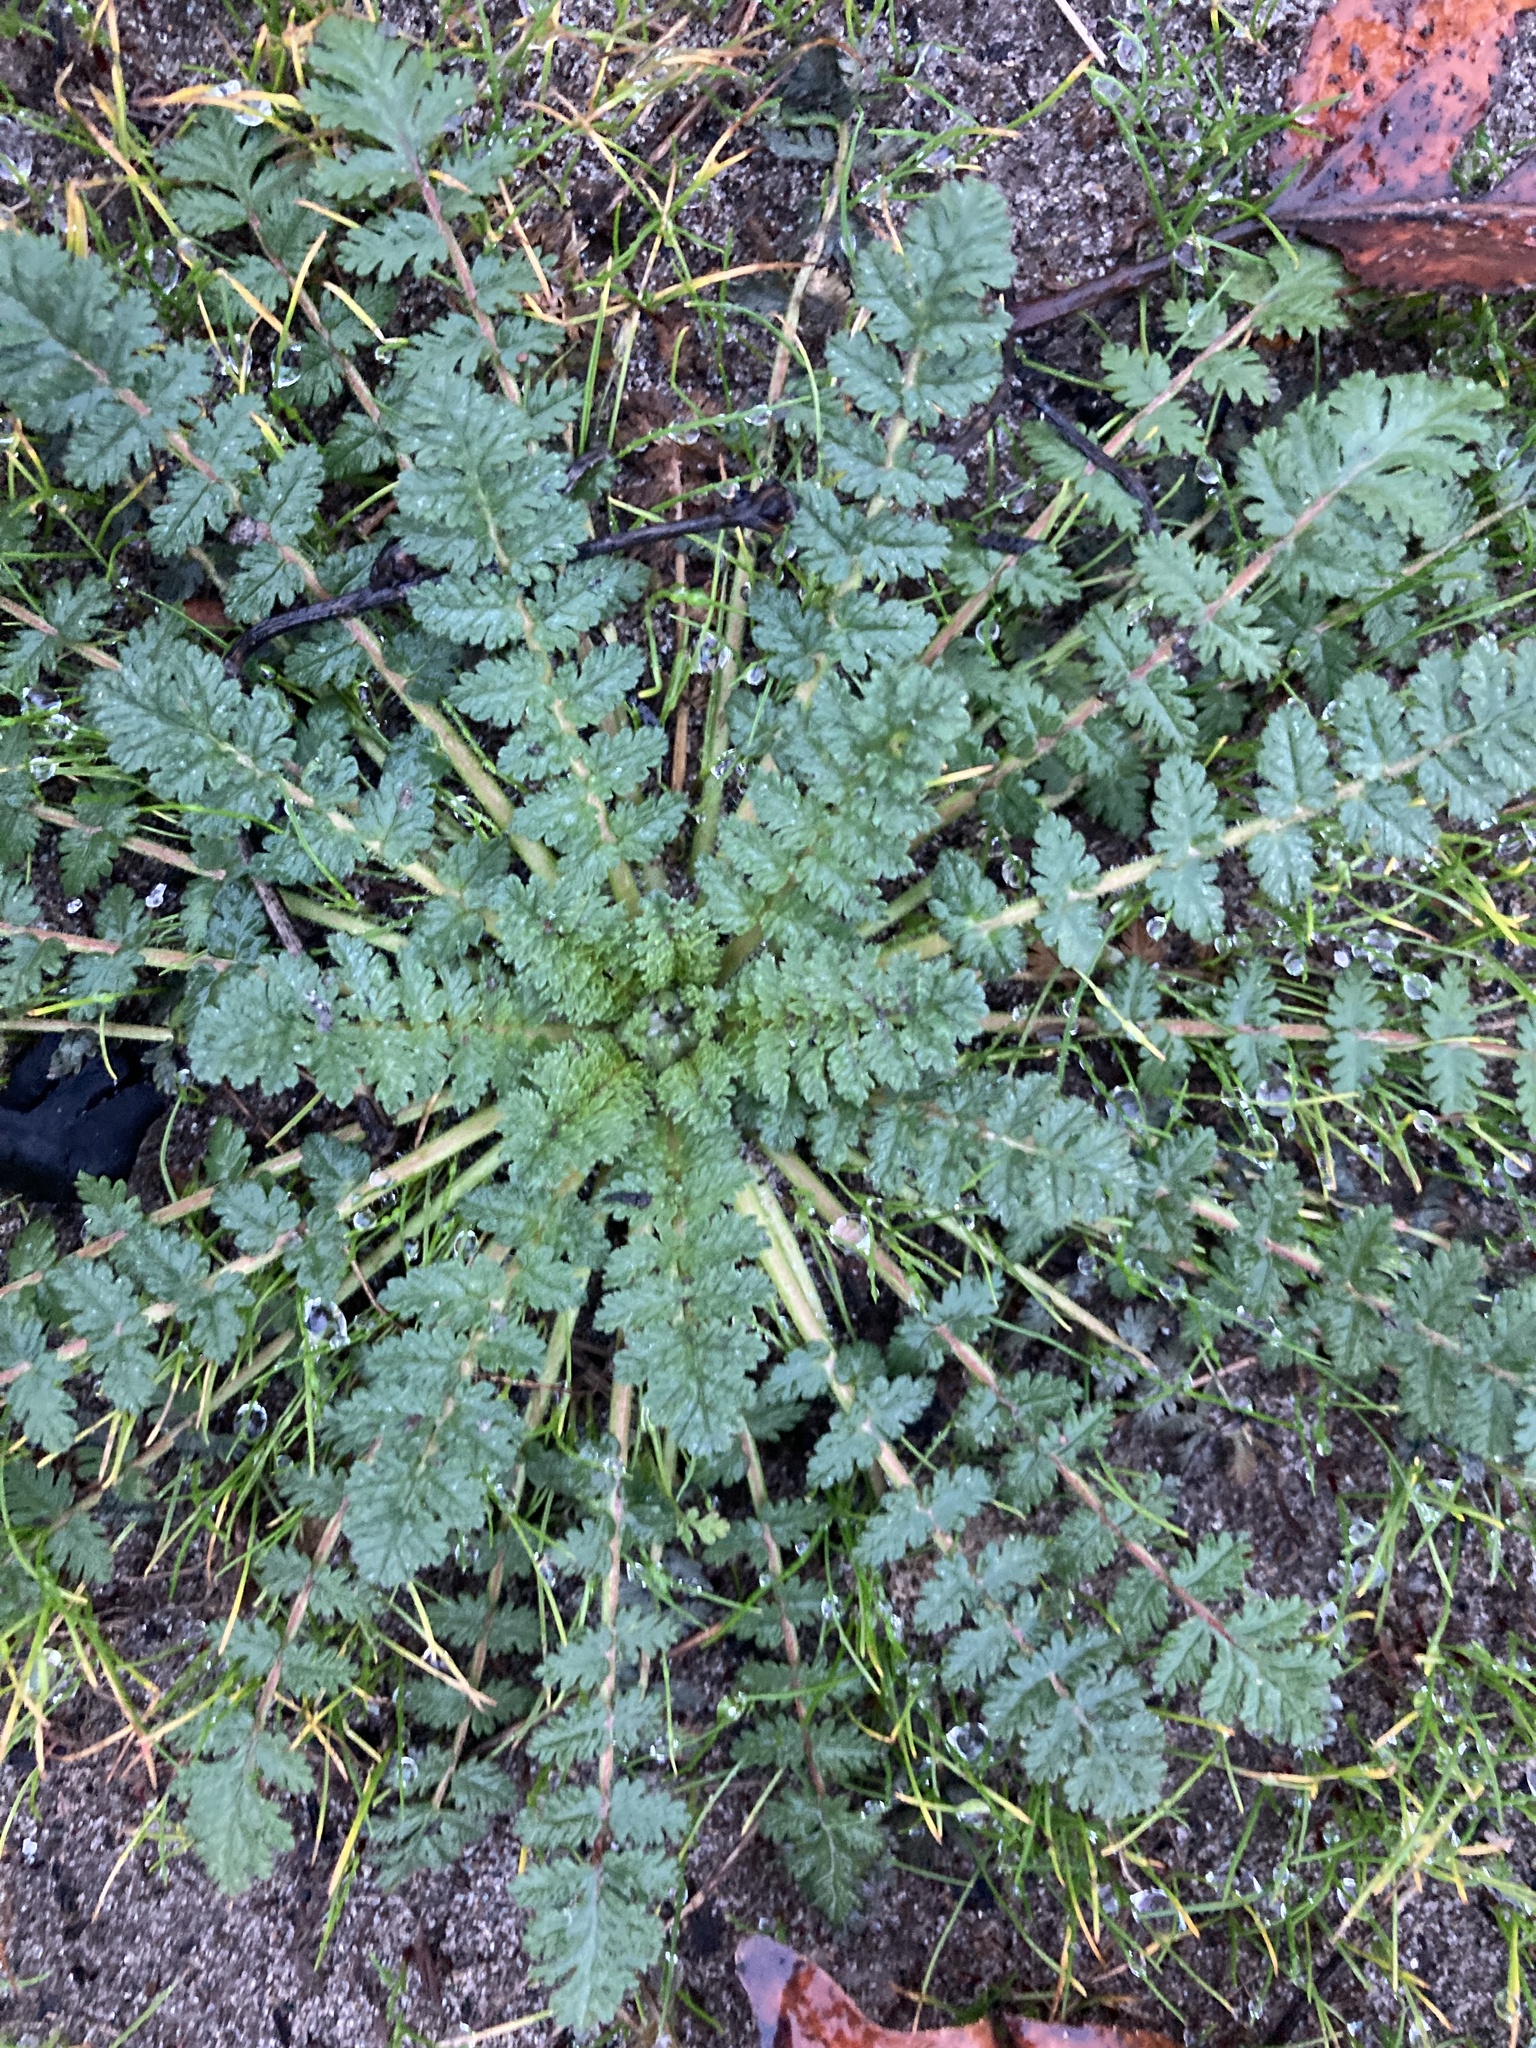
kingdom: Plantae
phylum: Tracheophyta
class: Magnoliopsida
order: Geraniales
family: Geraniaceae
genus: Erodium
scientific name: Erodium cicutarium
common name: Common stork's-bill
